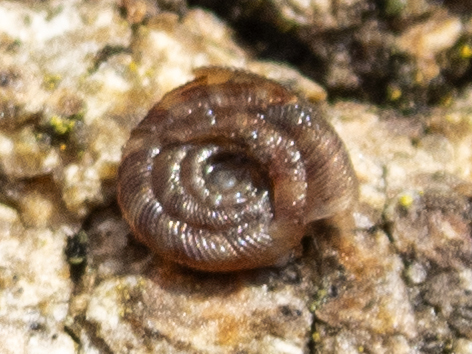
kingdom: Animalia
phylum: Mollusca
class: Gastropoda
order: Stylommatophora
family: Discidae
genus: Discus
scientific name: Discus rotundatus
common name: Rounded snail
